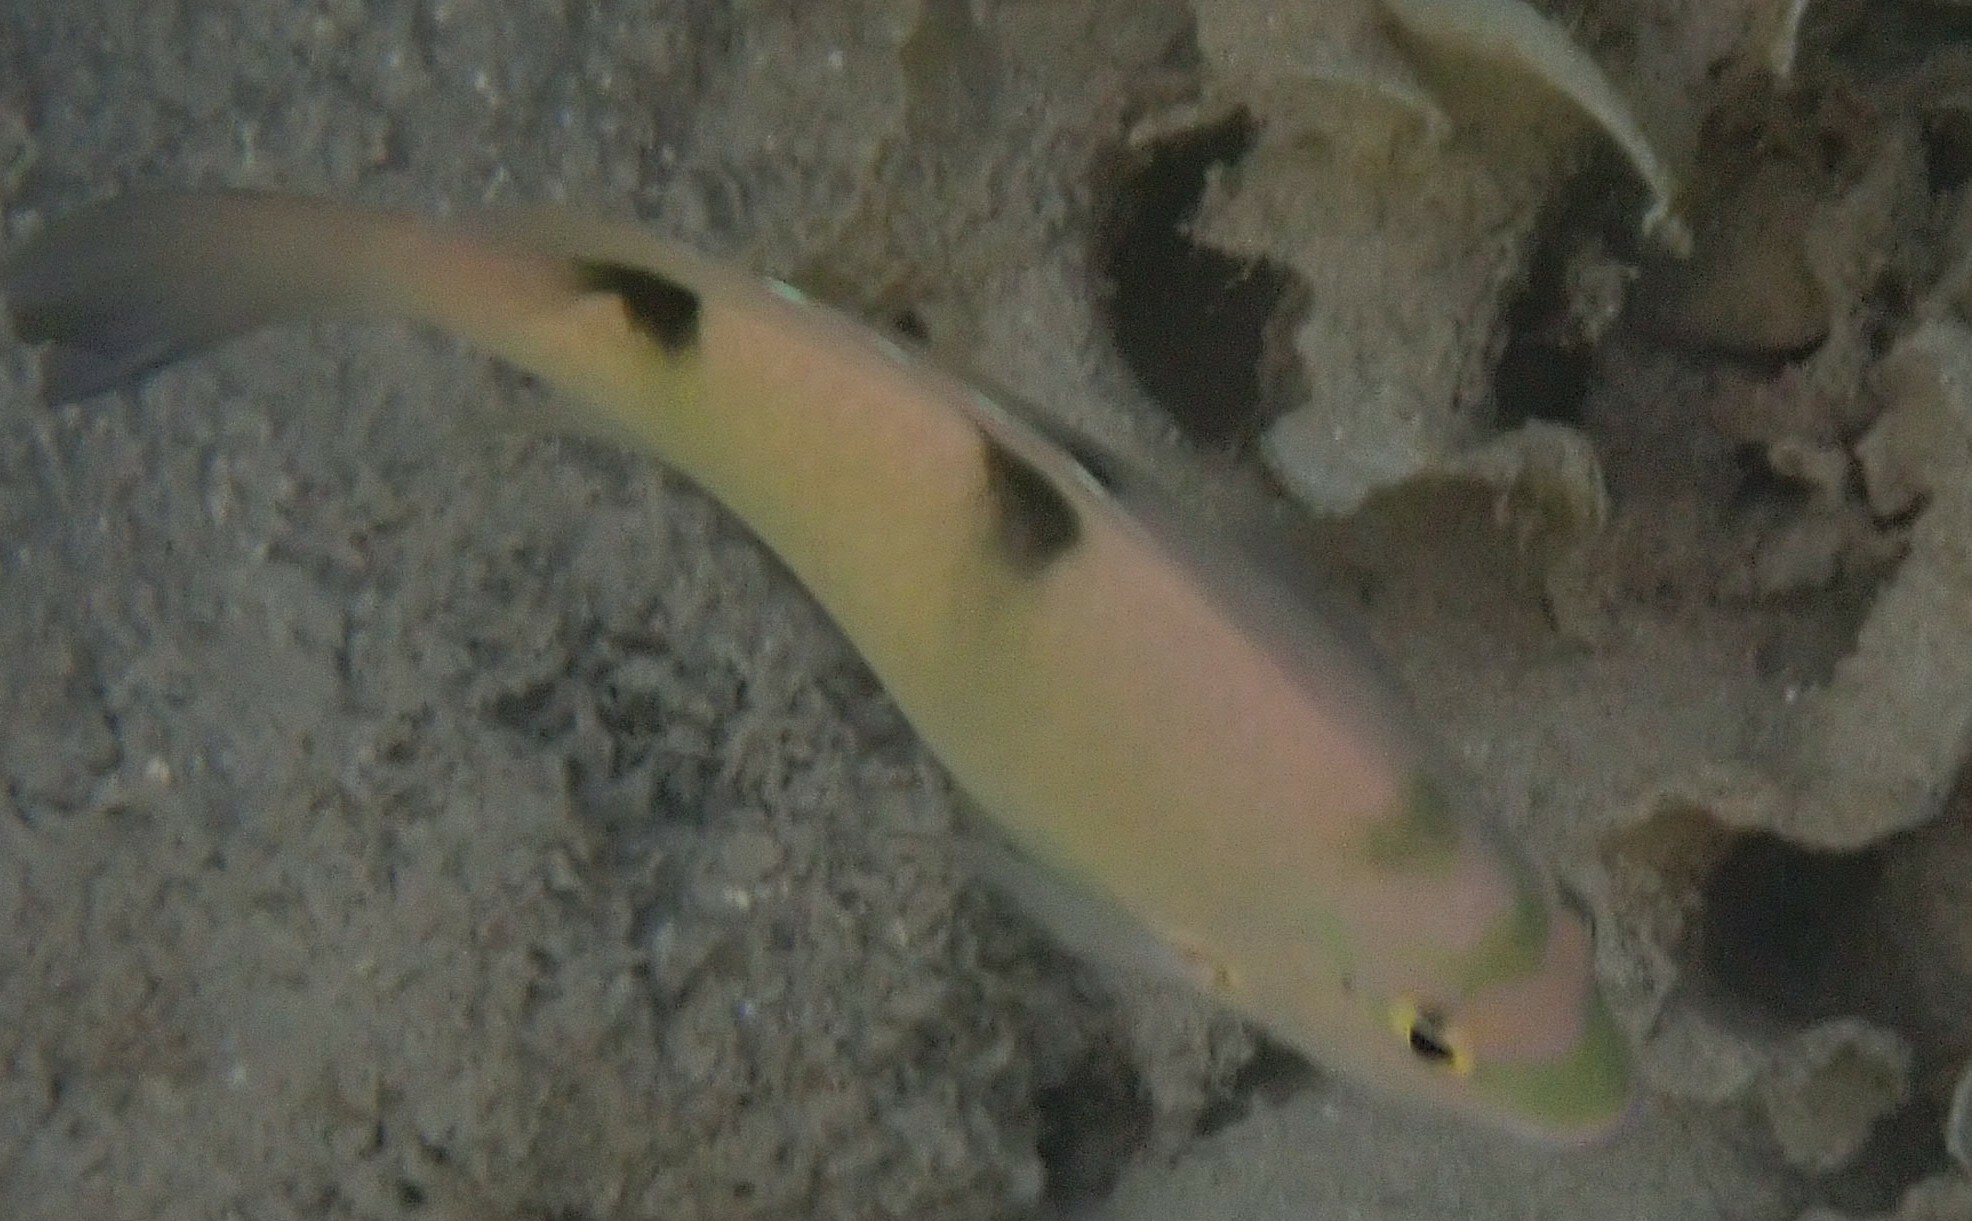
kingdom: Animalia
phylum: Chordata
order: Perciformes
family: Pomacentridae
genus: Dischistodus
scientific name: Dischistodus perspicillatus
